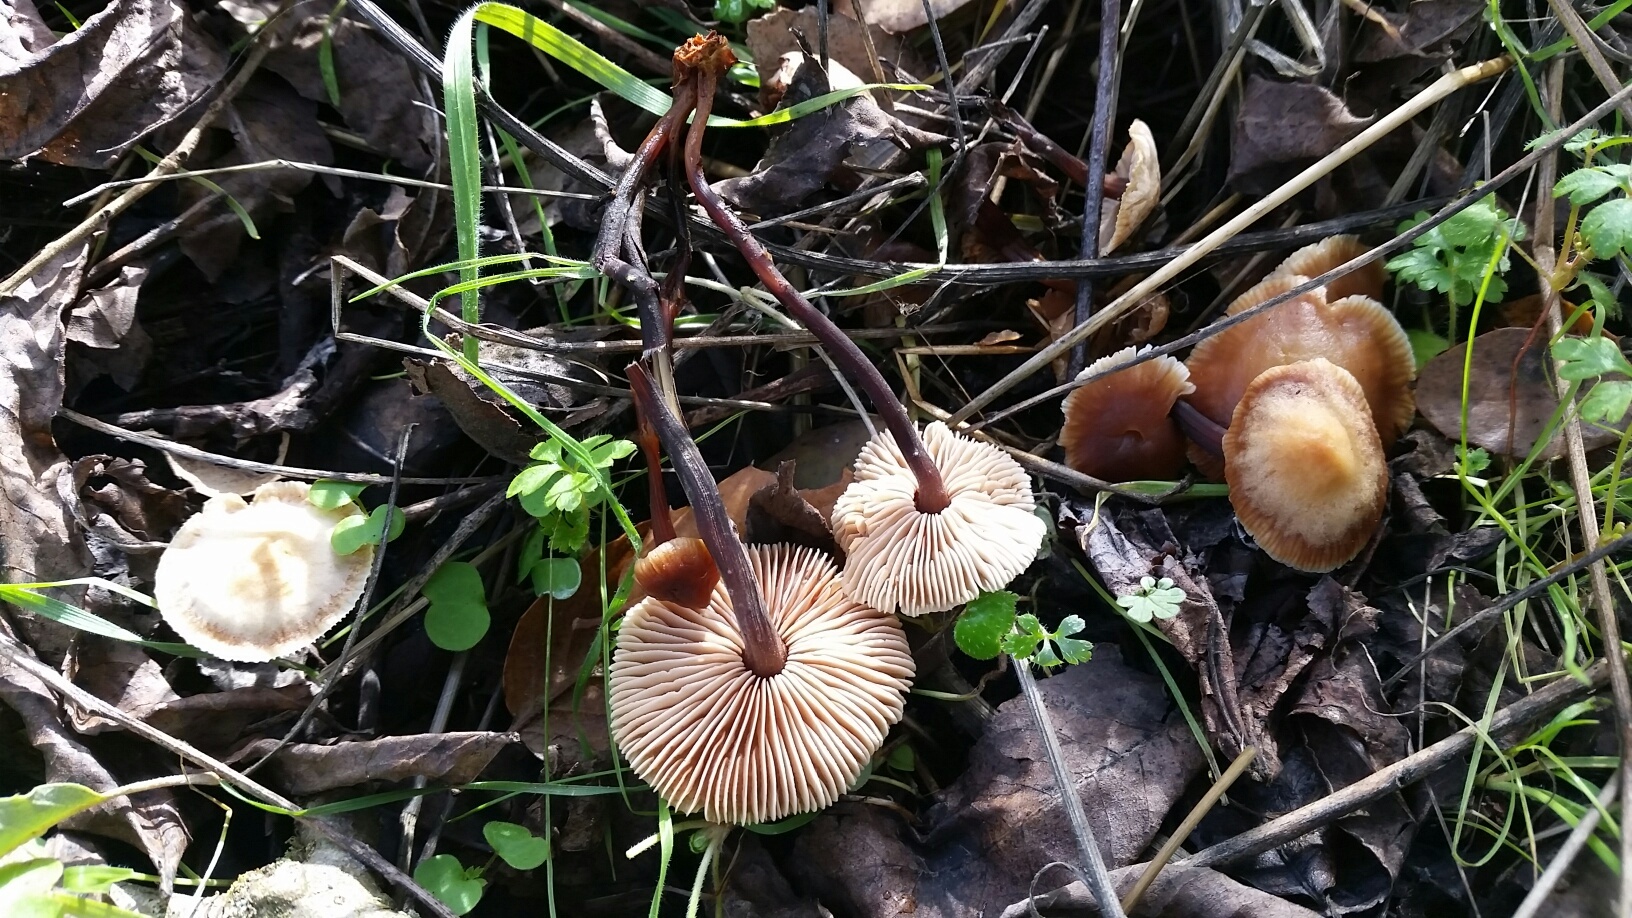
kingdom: Fungi
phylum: Basidiomycota
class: Agaricomycetes
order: Agaricales
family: Omphalotaceae
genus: Gymnopus
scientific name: Gymnopus brassicolens
